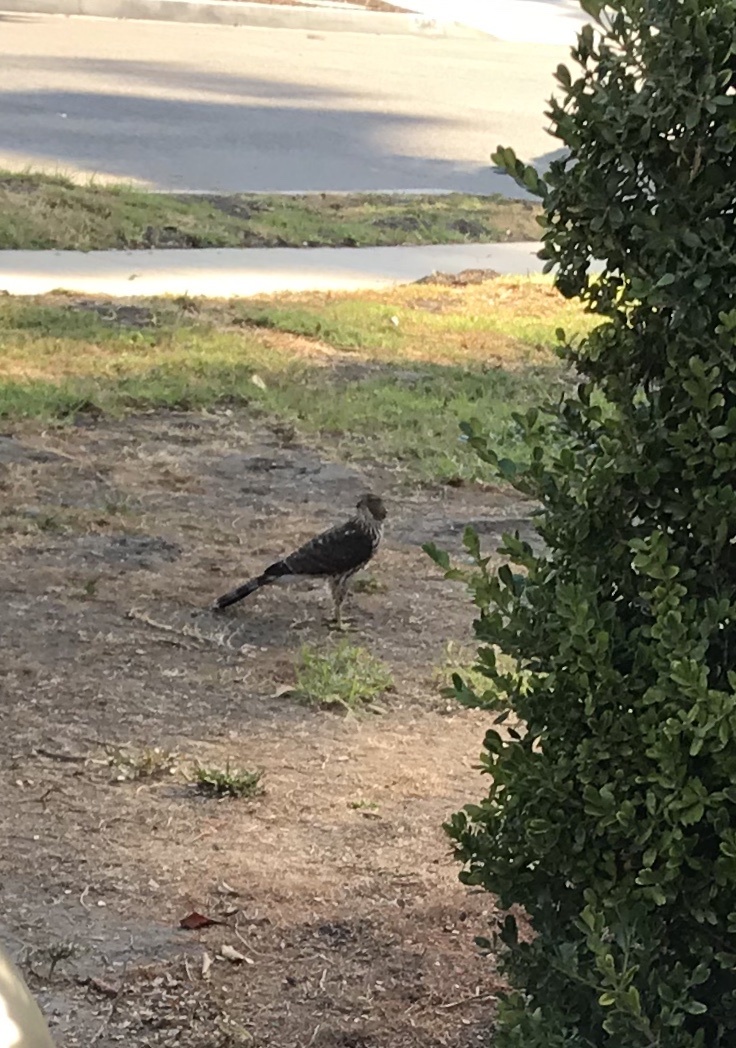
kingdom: Animalia
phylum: Chordata
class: Aves
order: Accipitriformes
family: Accipitridae
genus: Accipiter
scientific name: Accipiter cooperii
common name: Cooper's hawk
